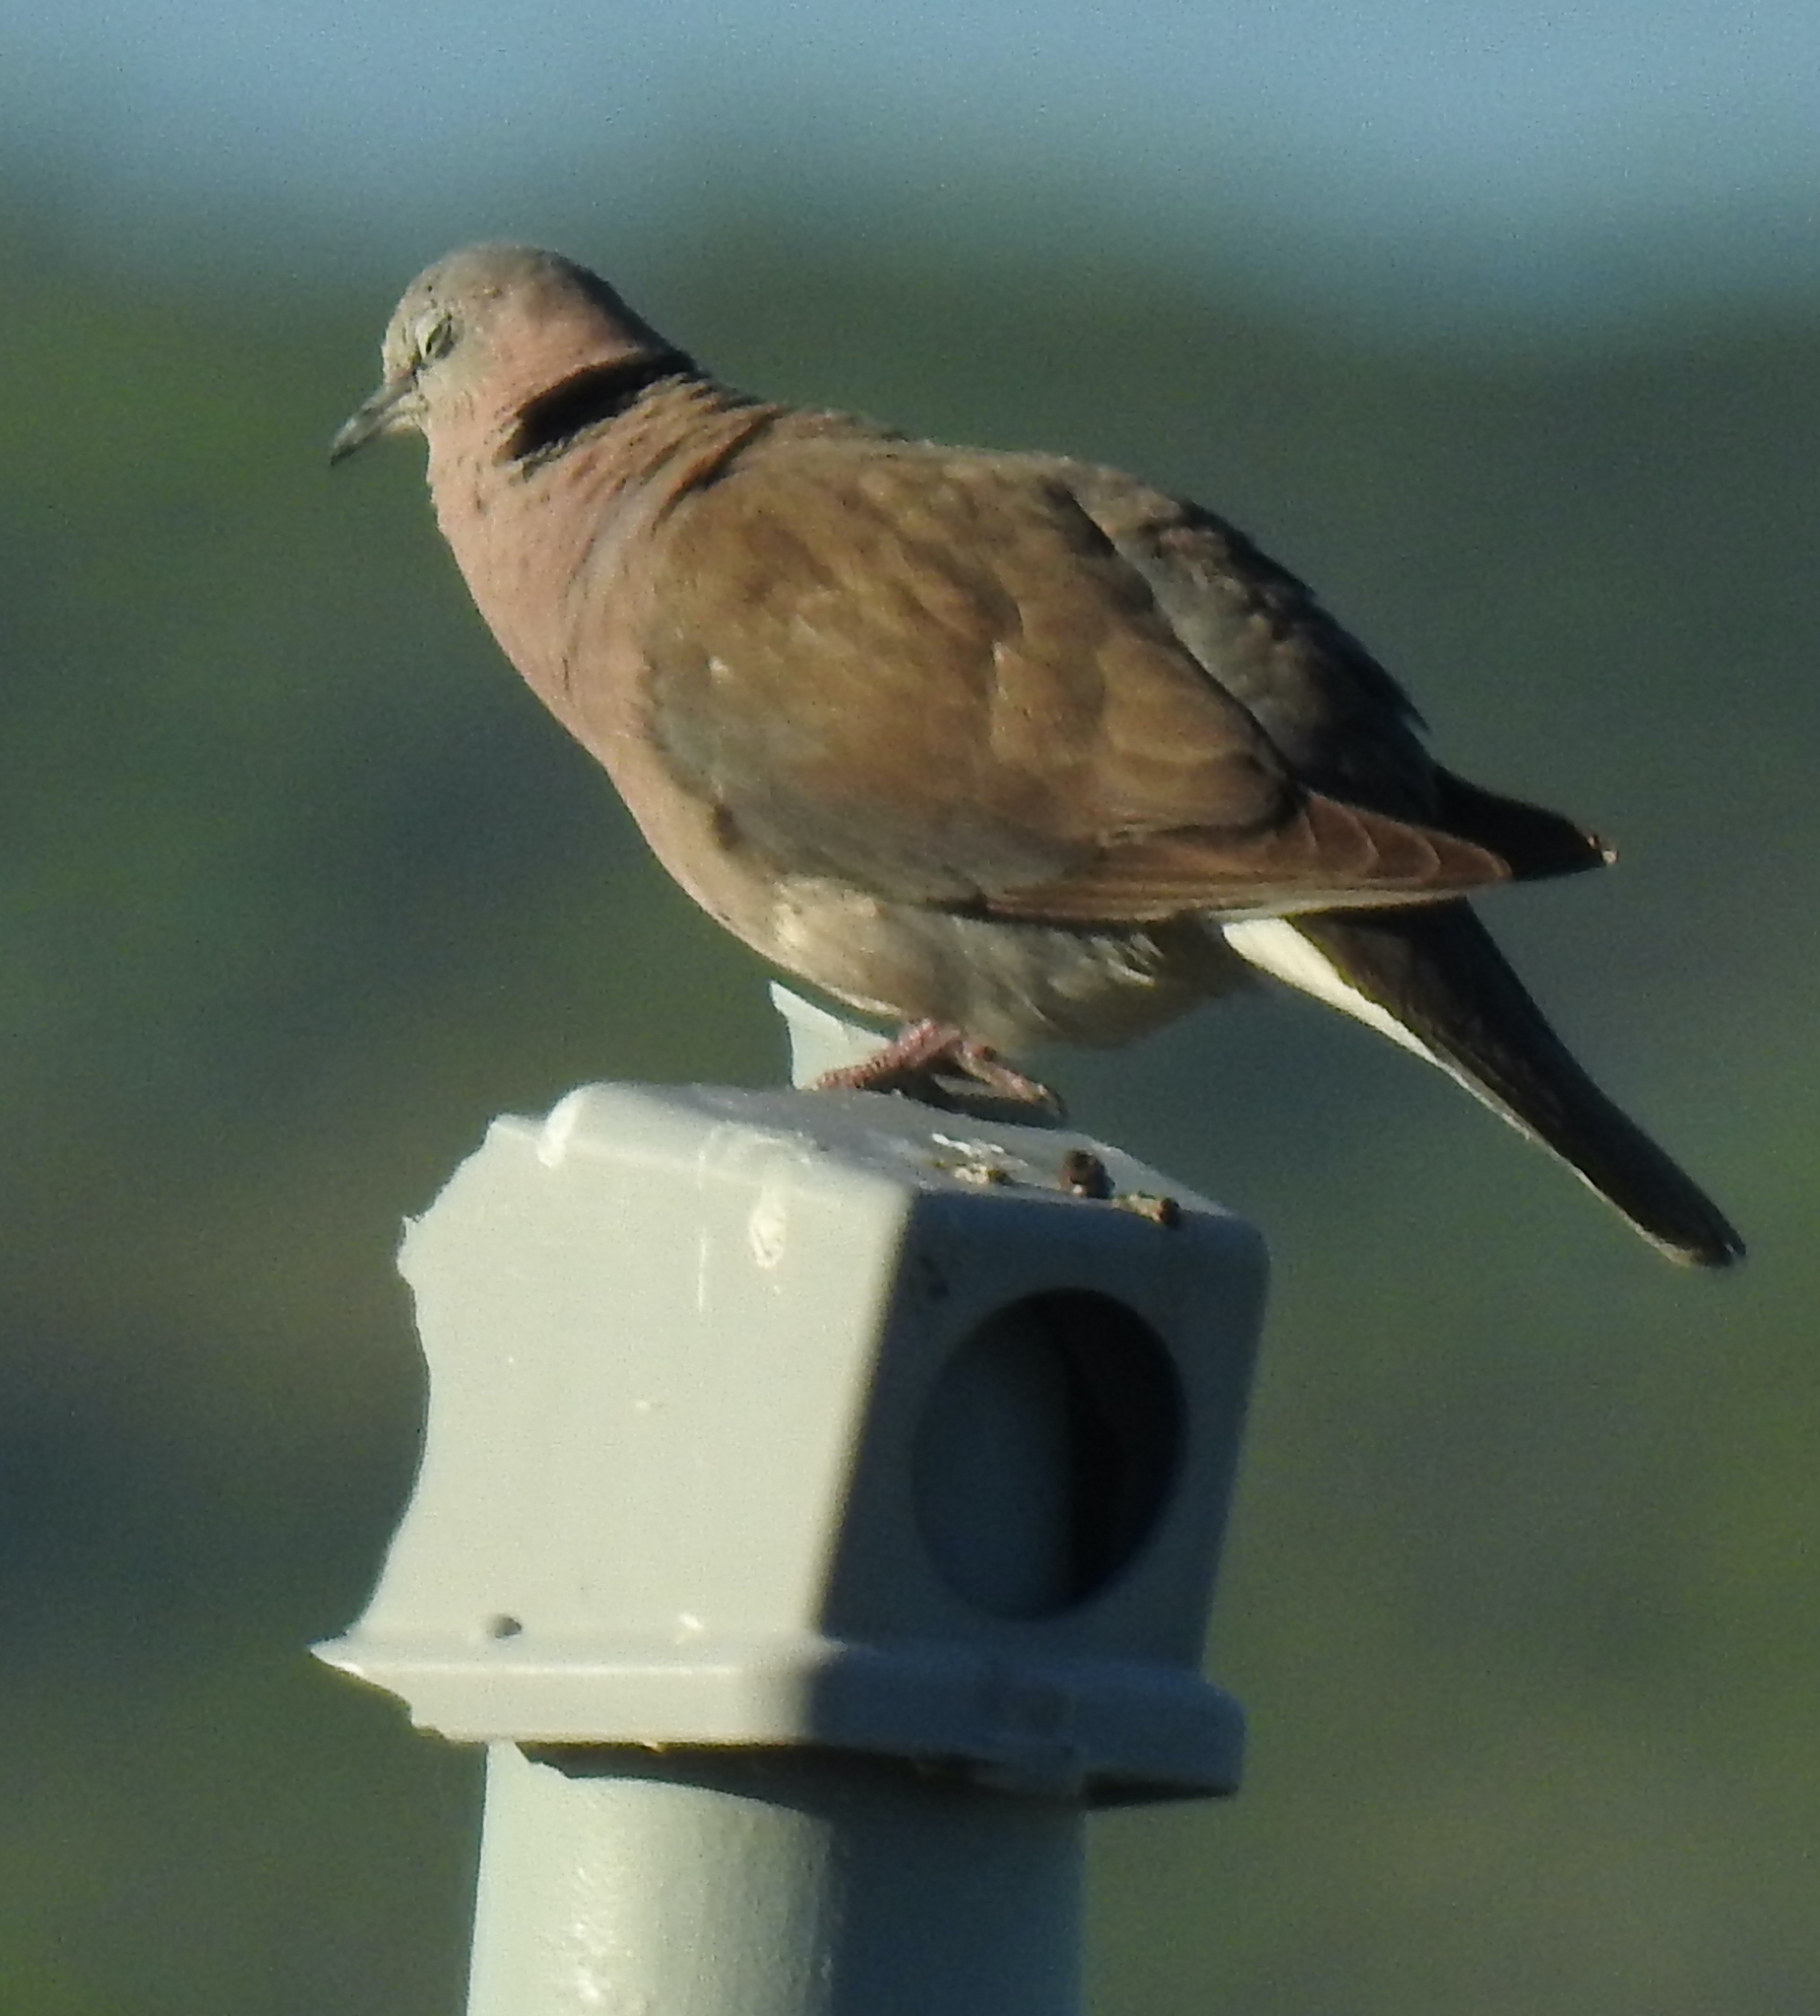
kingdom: Animalia
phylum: Chordata
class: Aves
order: Columbiformes
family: Columbidae
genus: Streptopelia
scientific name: Streptopelia capicola
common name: Ring-necked dove
